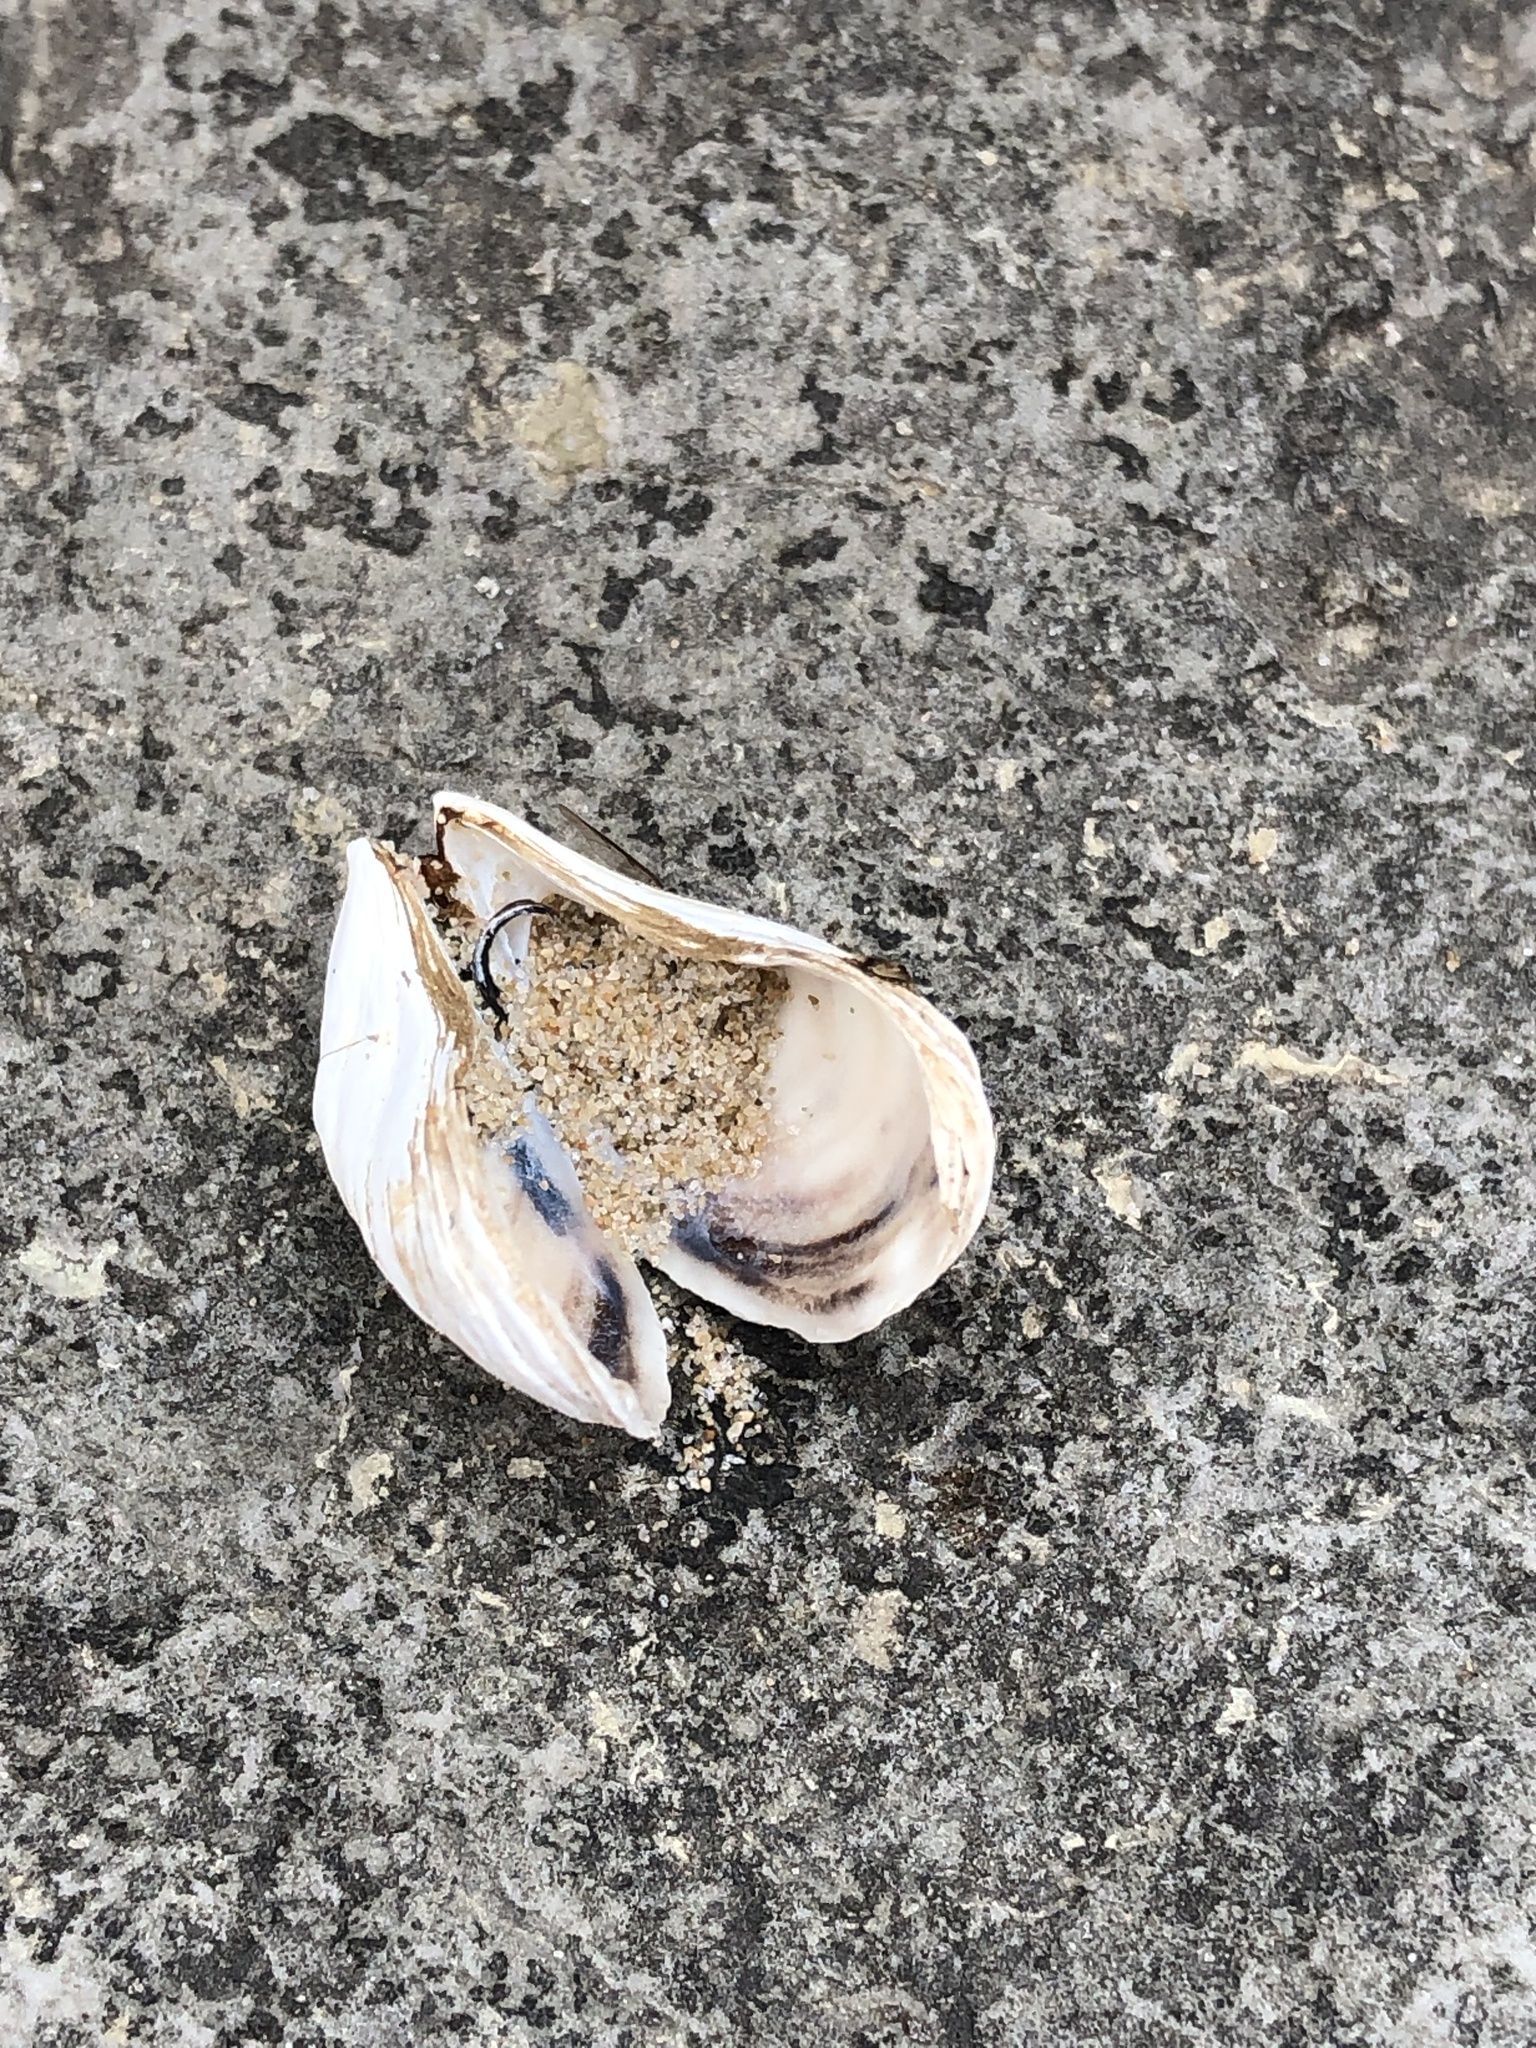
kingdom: Animalia
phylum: Mollusca
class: Bivalvia
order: Myida
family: Dreissenidae
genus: Dreissena
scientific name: Dreissena bugensis
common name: Quagga mussel
